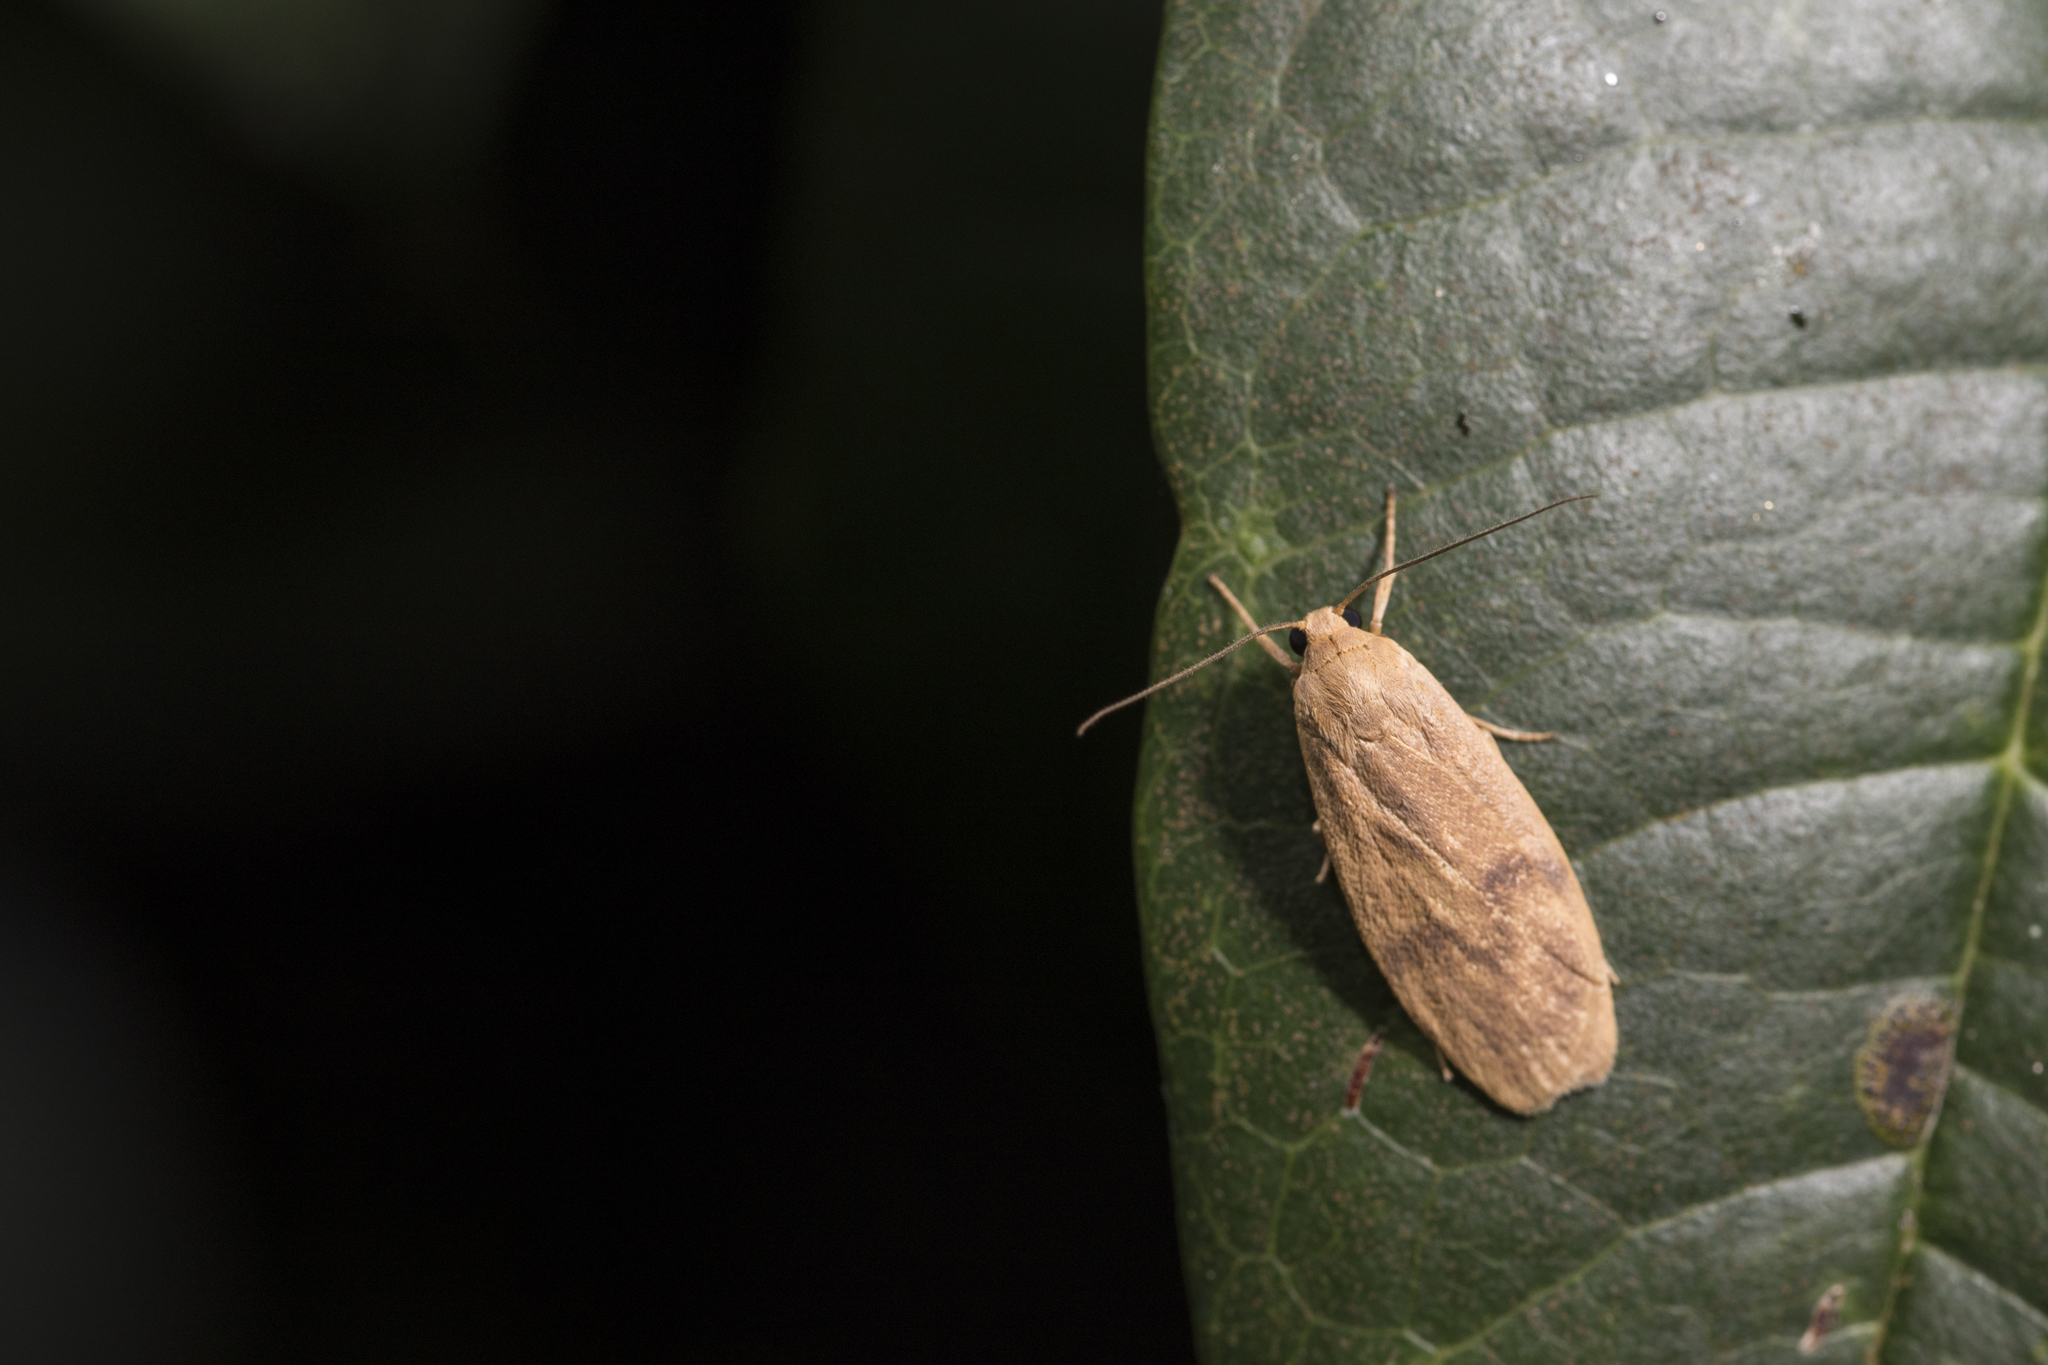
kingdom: Animalia
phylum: Arthropoda
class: Insecta
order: Lepidoptera
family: Erebidae
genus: Teuloma
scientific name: Teuloma tainebula
